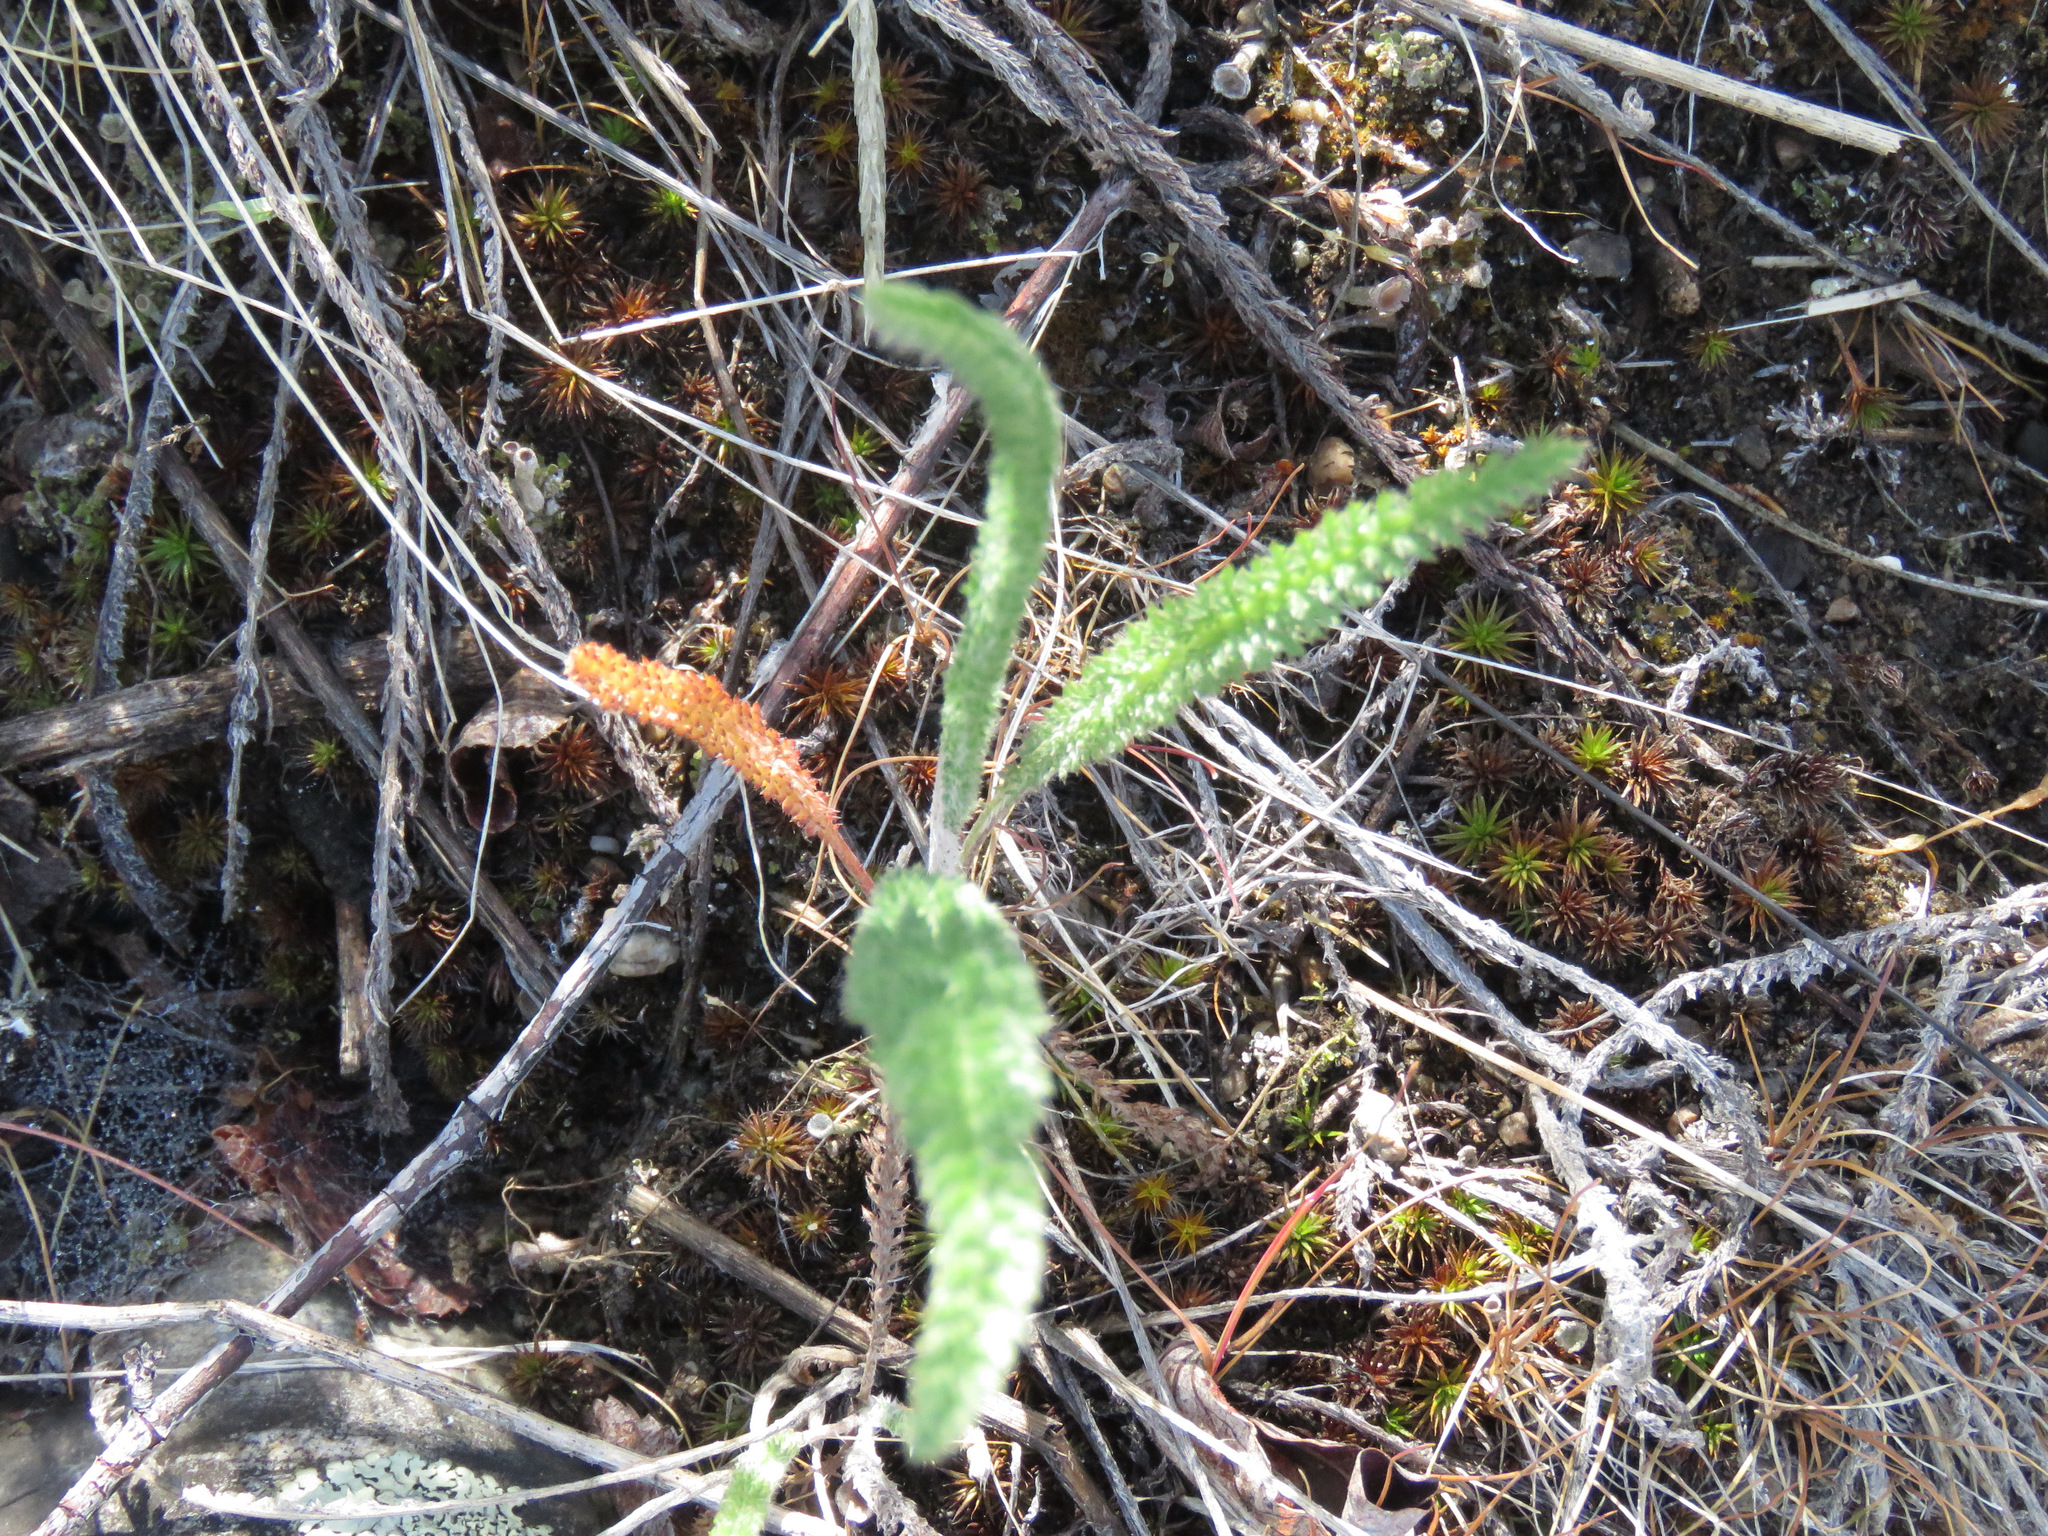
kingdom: Plantae
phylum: Tracheophyta
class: Magnoliopsida
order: Asterales
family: Asteraceae
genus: Achillea
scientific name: Achillea millefolium
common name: Yarrow
